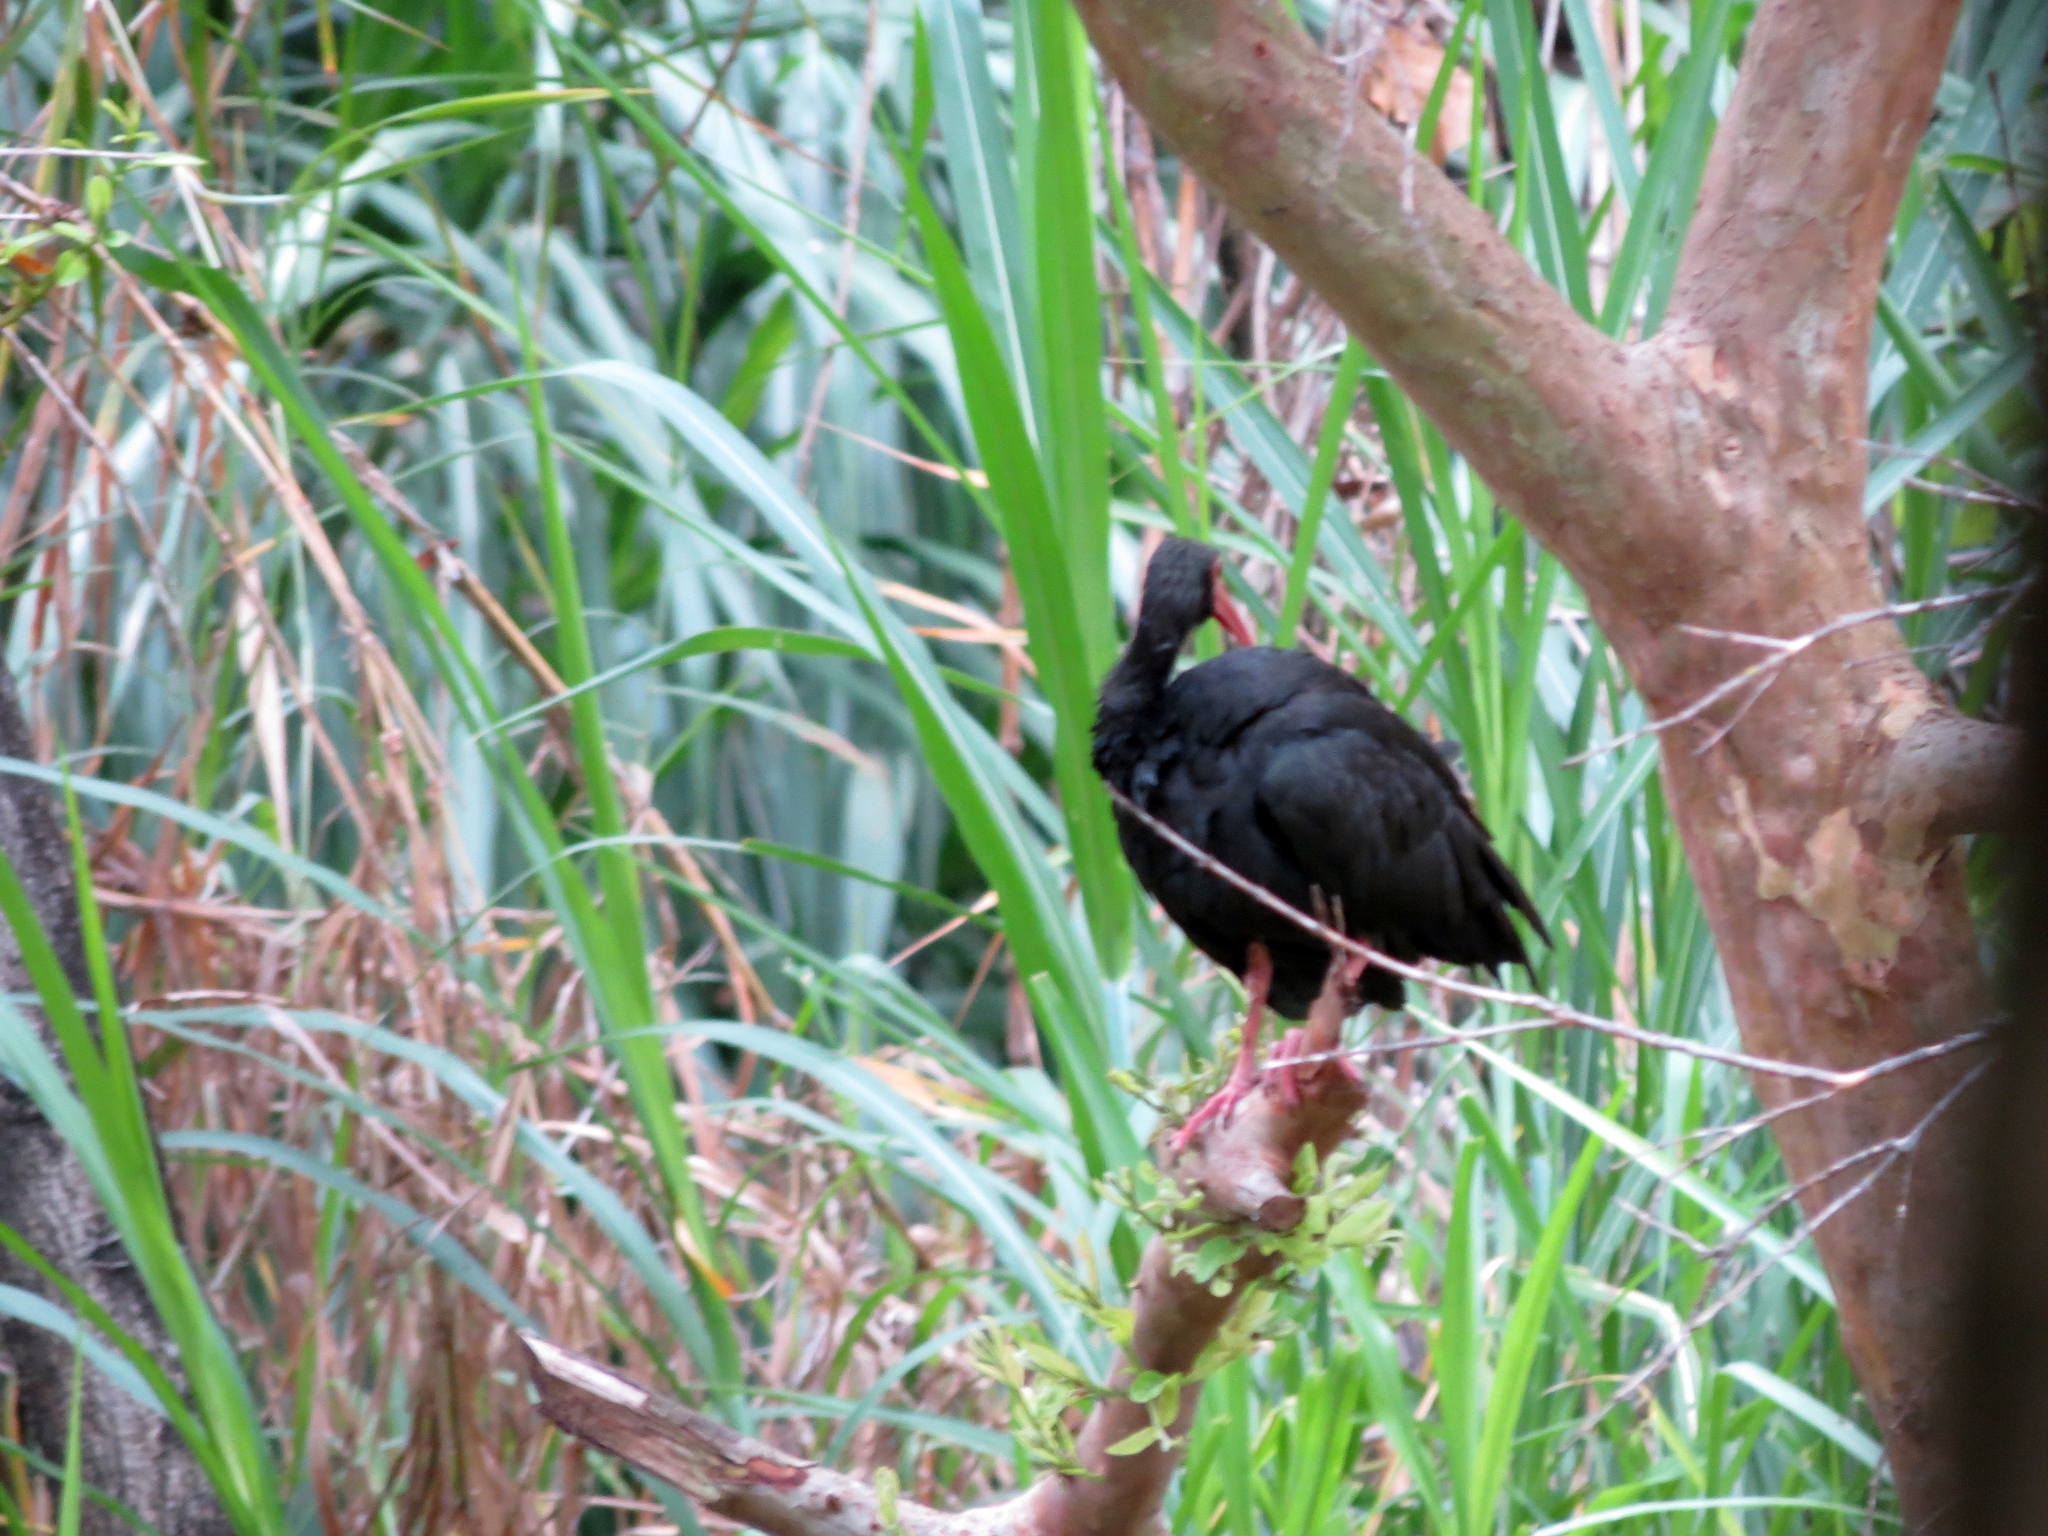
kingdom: Animalia
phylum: Chordata
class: Aves
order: Pelecaniformes
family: Threskiornithidae
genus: Phimosus
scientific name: Phimosus infuscatus
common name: Bare-faced ibis
